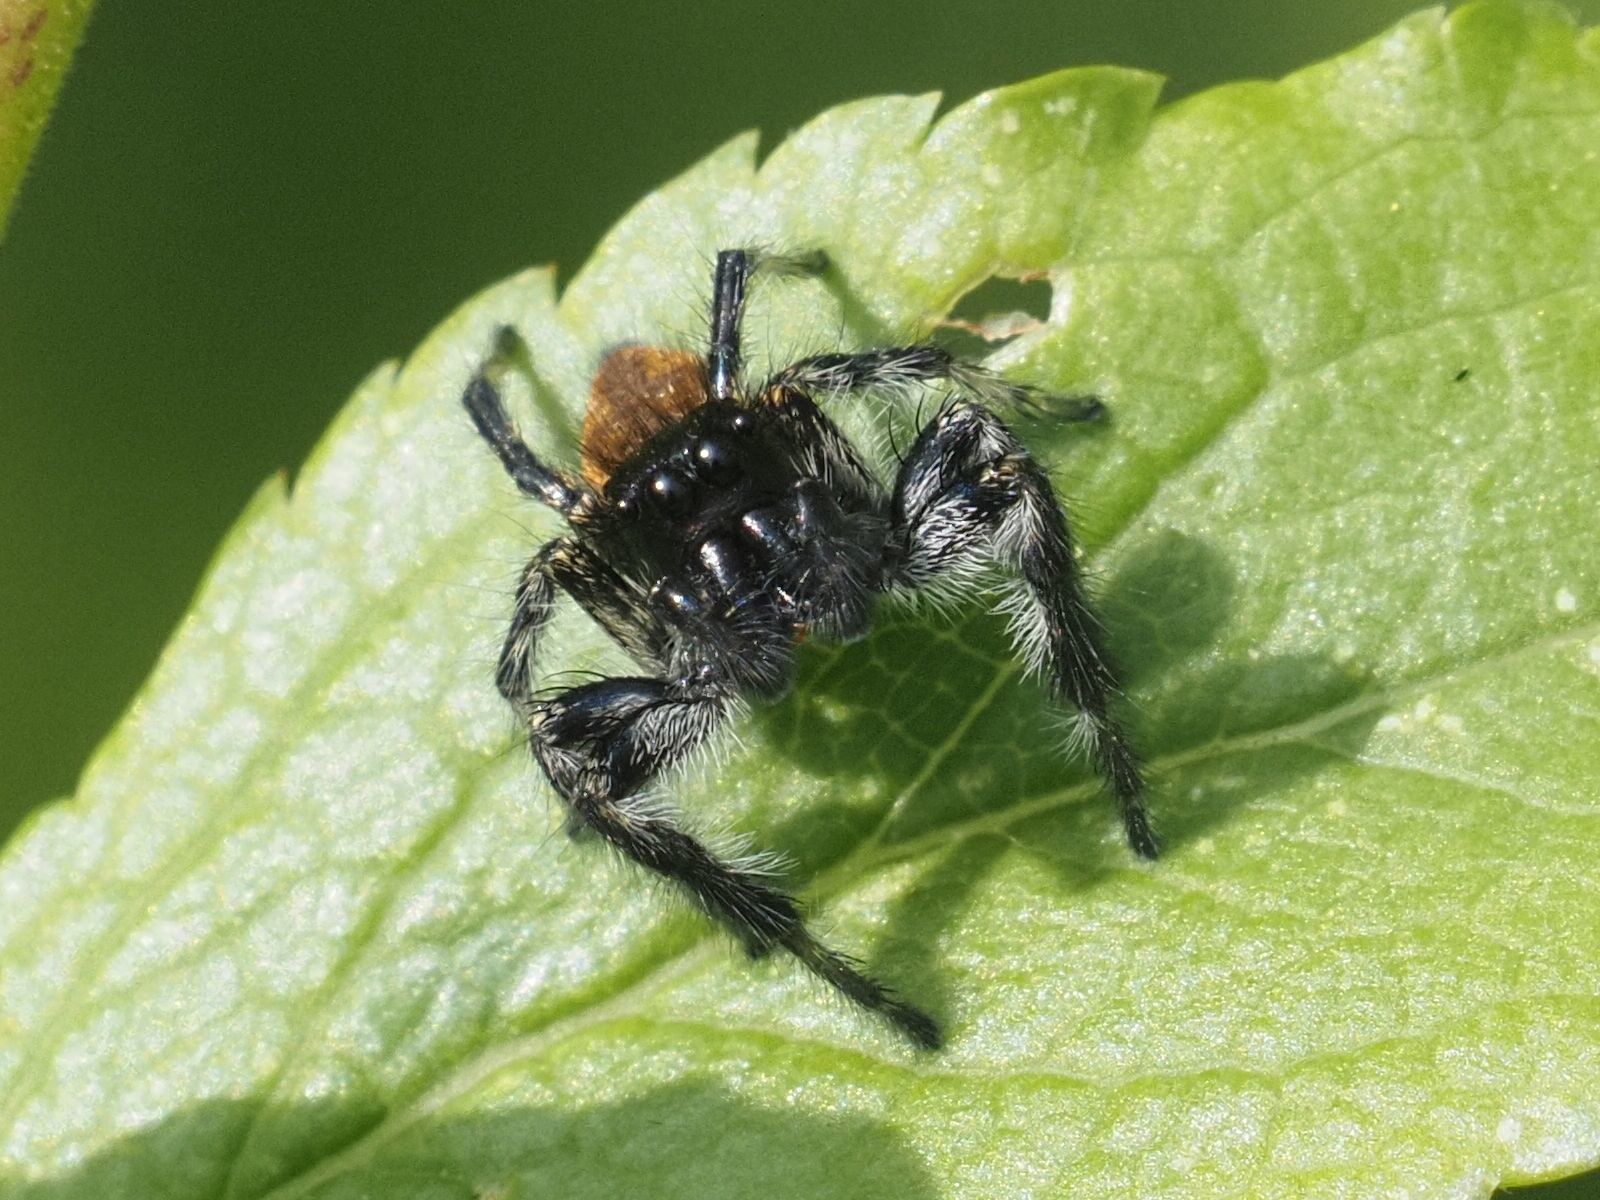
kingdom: Animalia
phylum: Arthropoda
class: Arachnida
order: Araneae
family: Salticidae
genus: Carrhotus
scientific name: Carrhotus xanthogramma
